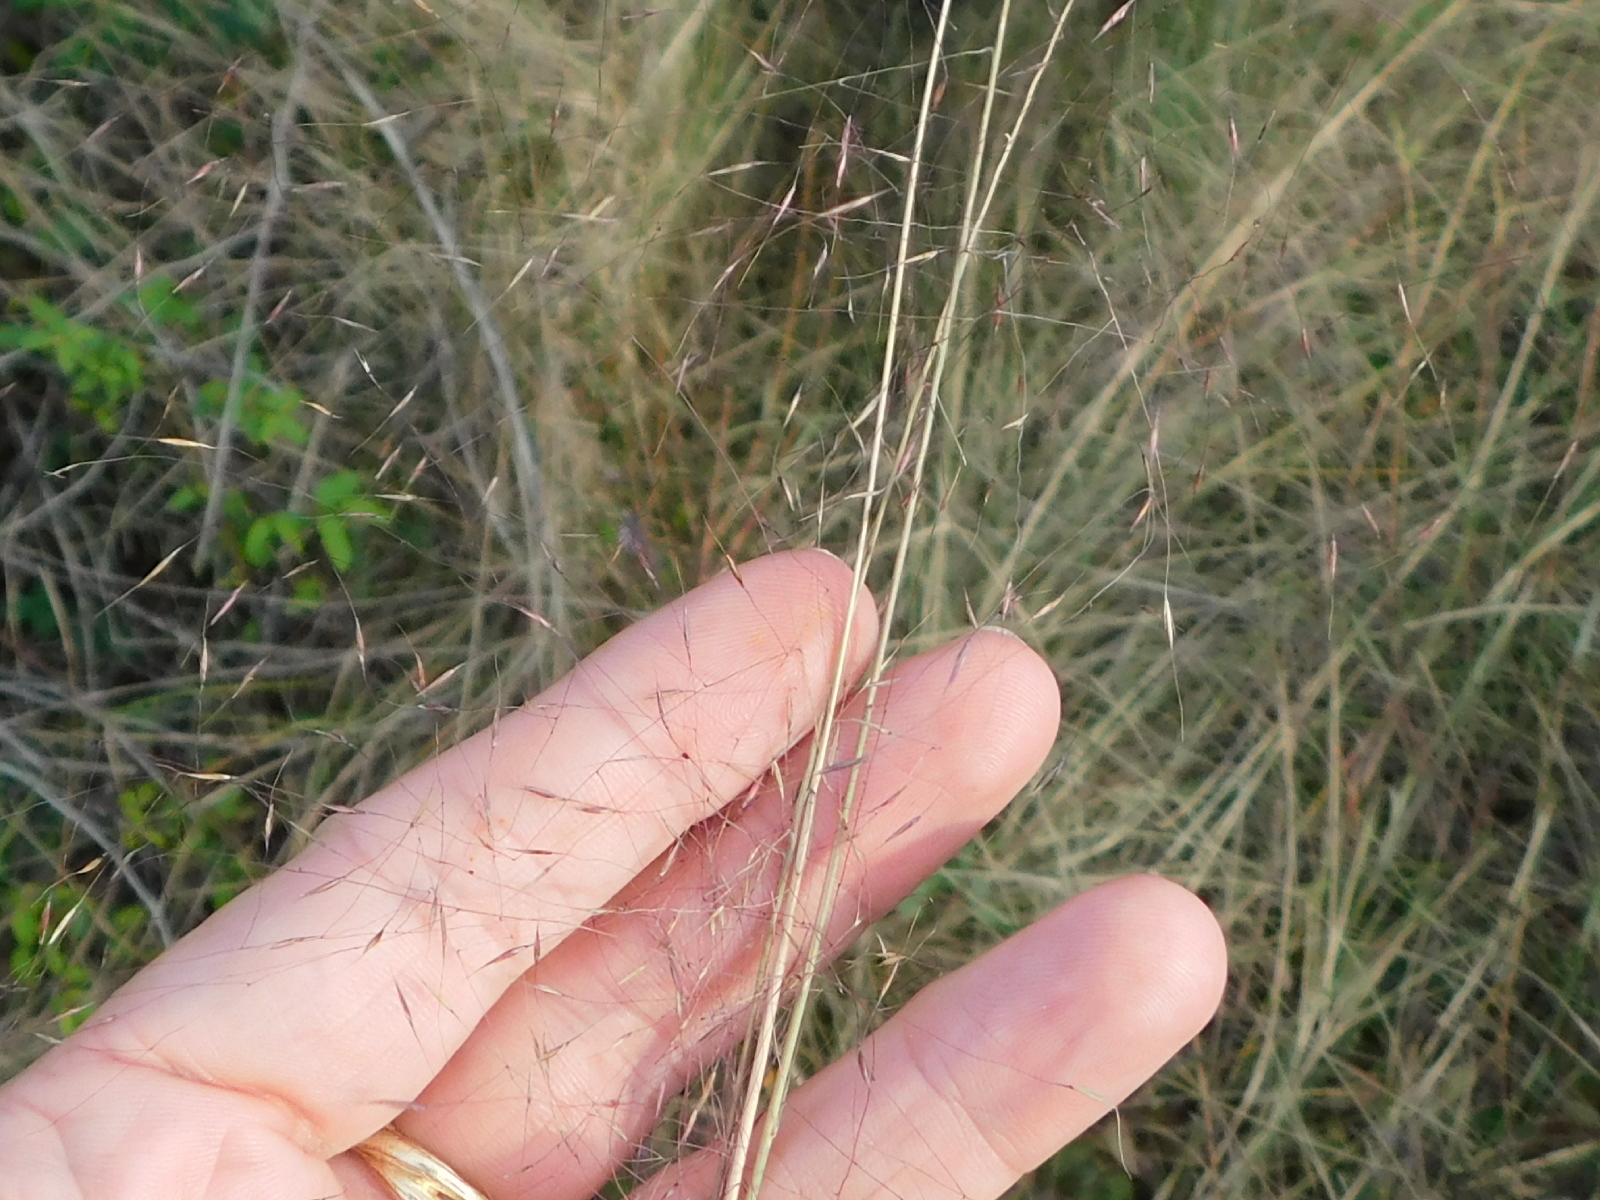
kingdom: Plantae
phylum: Tracheophyta
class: Liliopsida
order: Poales
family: Poaceae
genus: Muhlenbergia
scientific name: Muhlenbergia capillaris
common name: Purple grass
